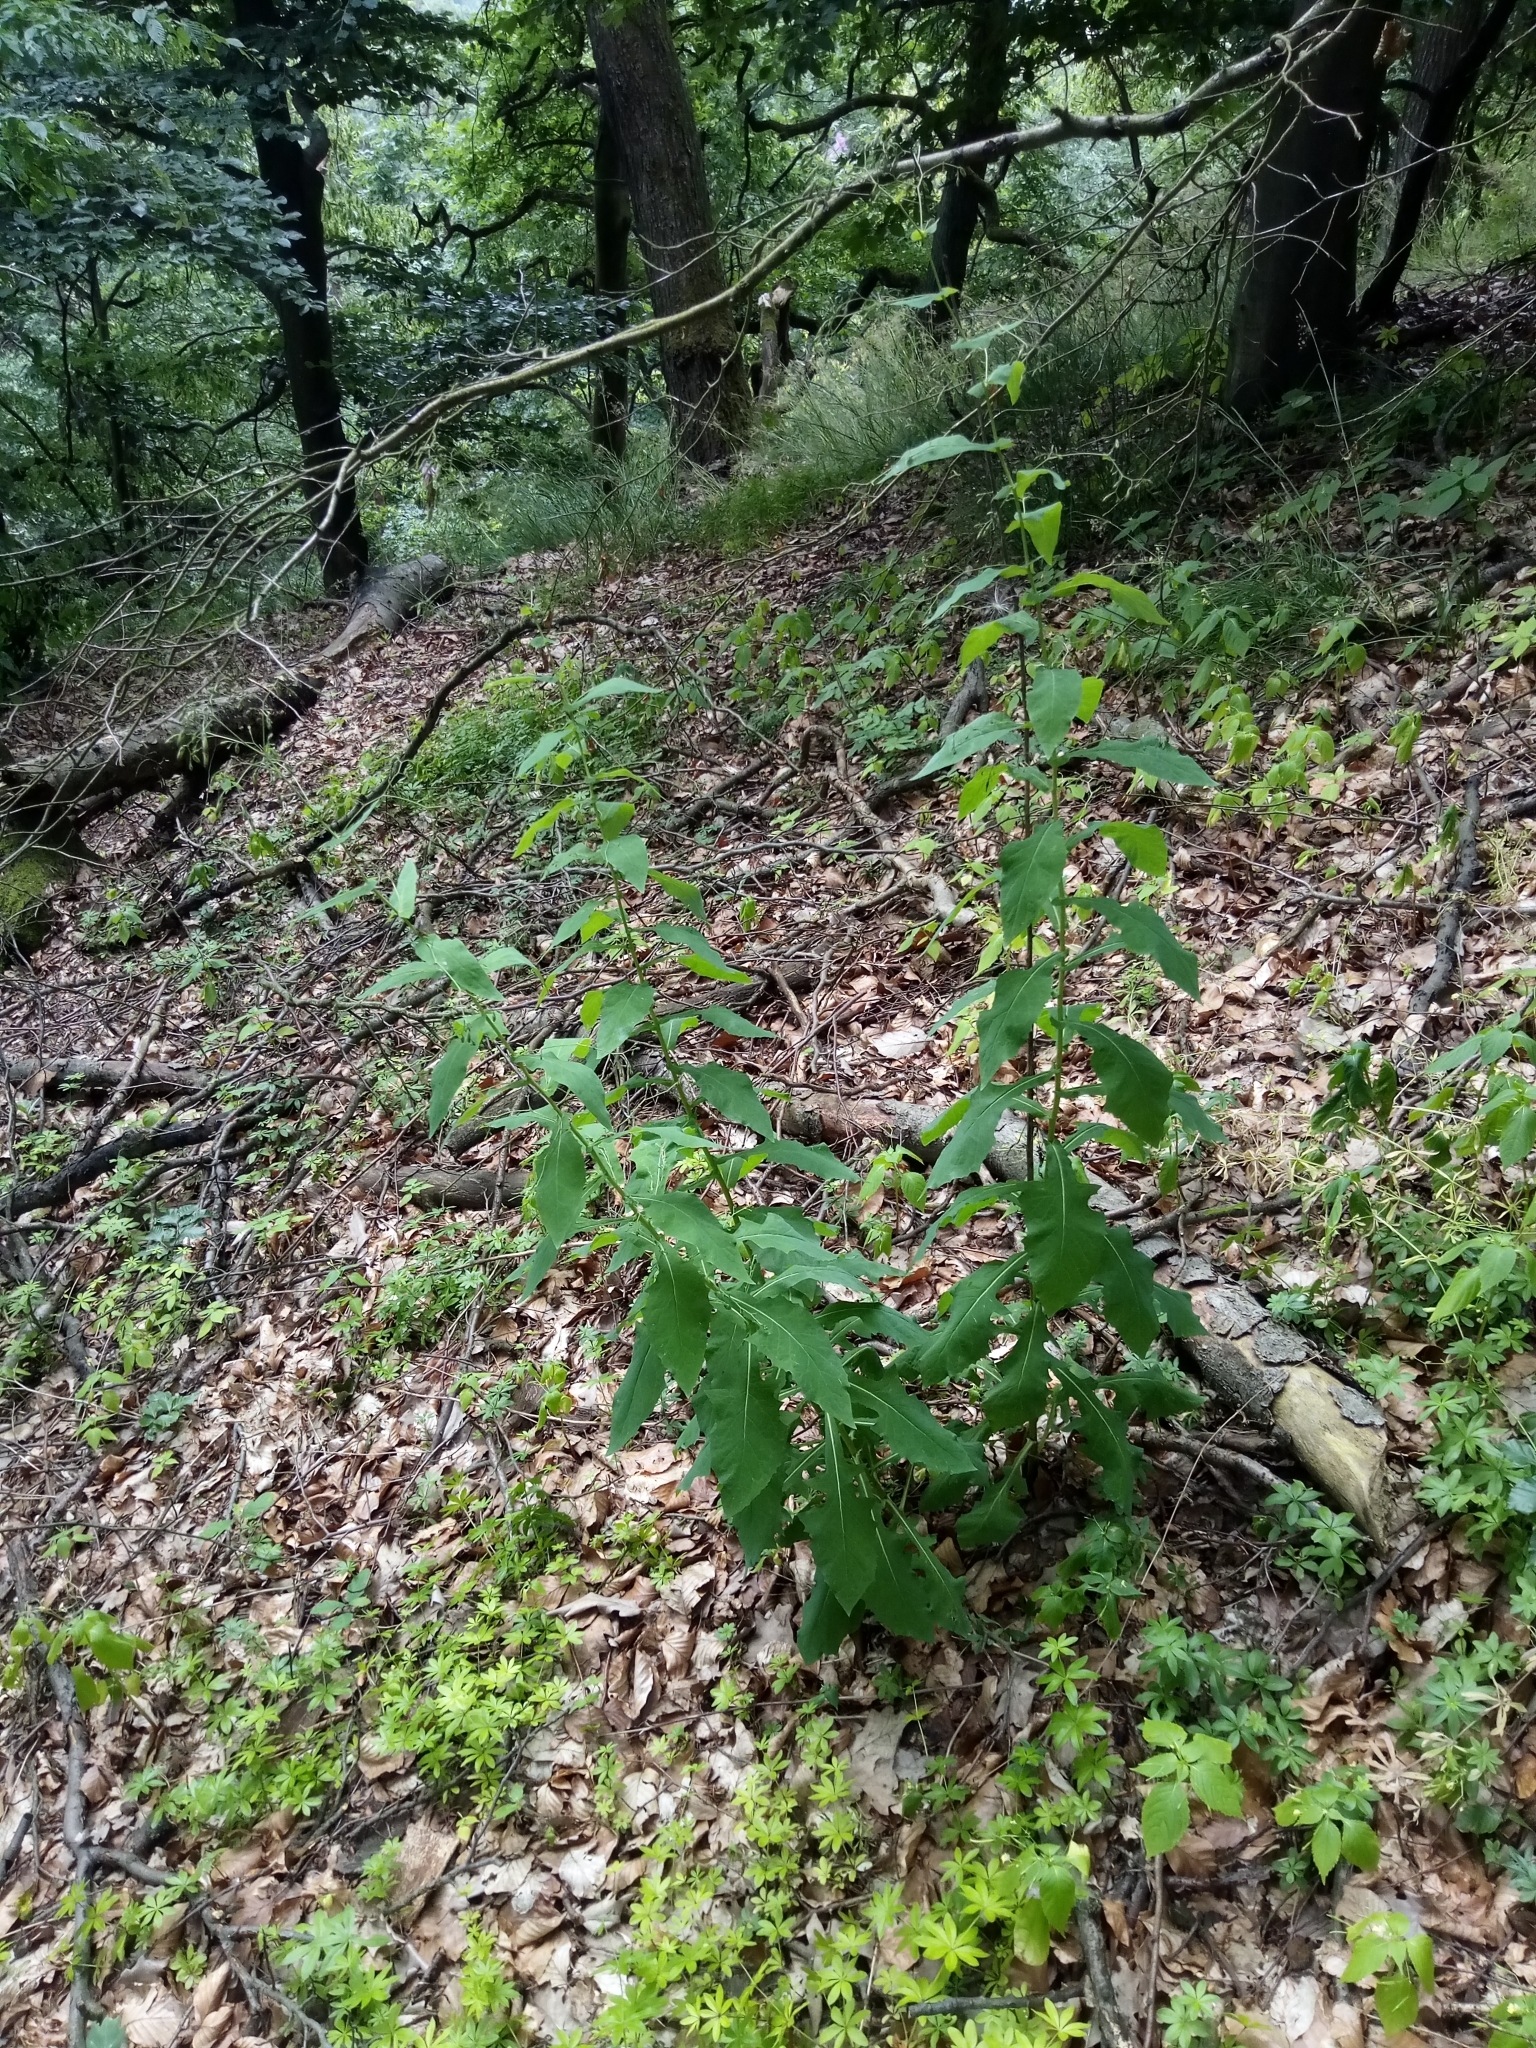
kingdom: Plantae
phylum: Tracheophyta
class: Magnoliopsida
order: Asterales
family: Asteraceae
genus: Prenanthes
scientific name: Prenanthes purpurea
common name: Purple lettuce
